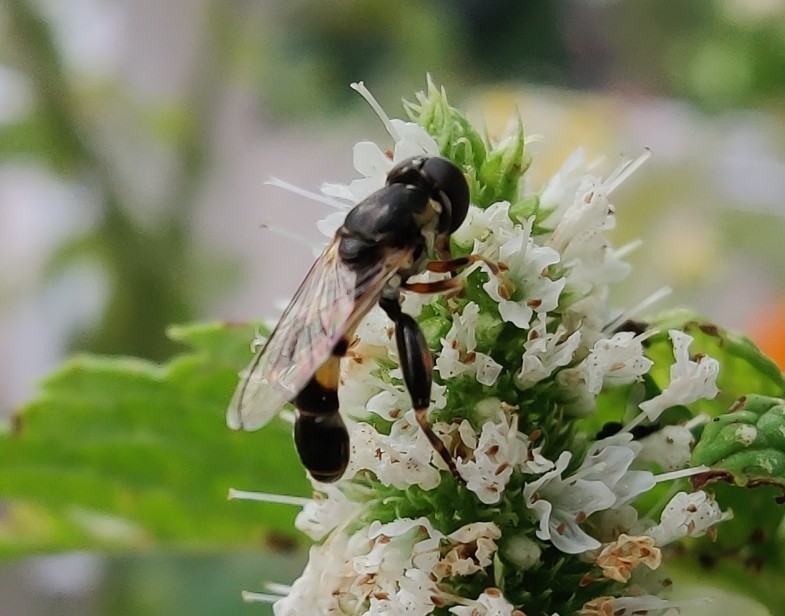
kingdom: Animalia
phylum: Arthropoda
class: Insecta
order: Diptera
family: Syrphidae
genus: Syritta
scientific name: Syritta pipiens
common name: Hover fly
